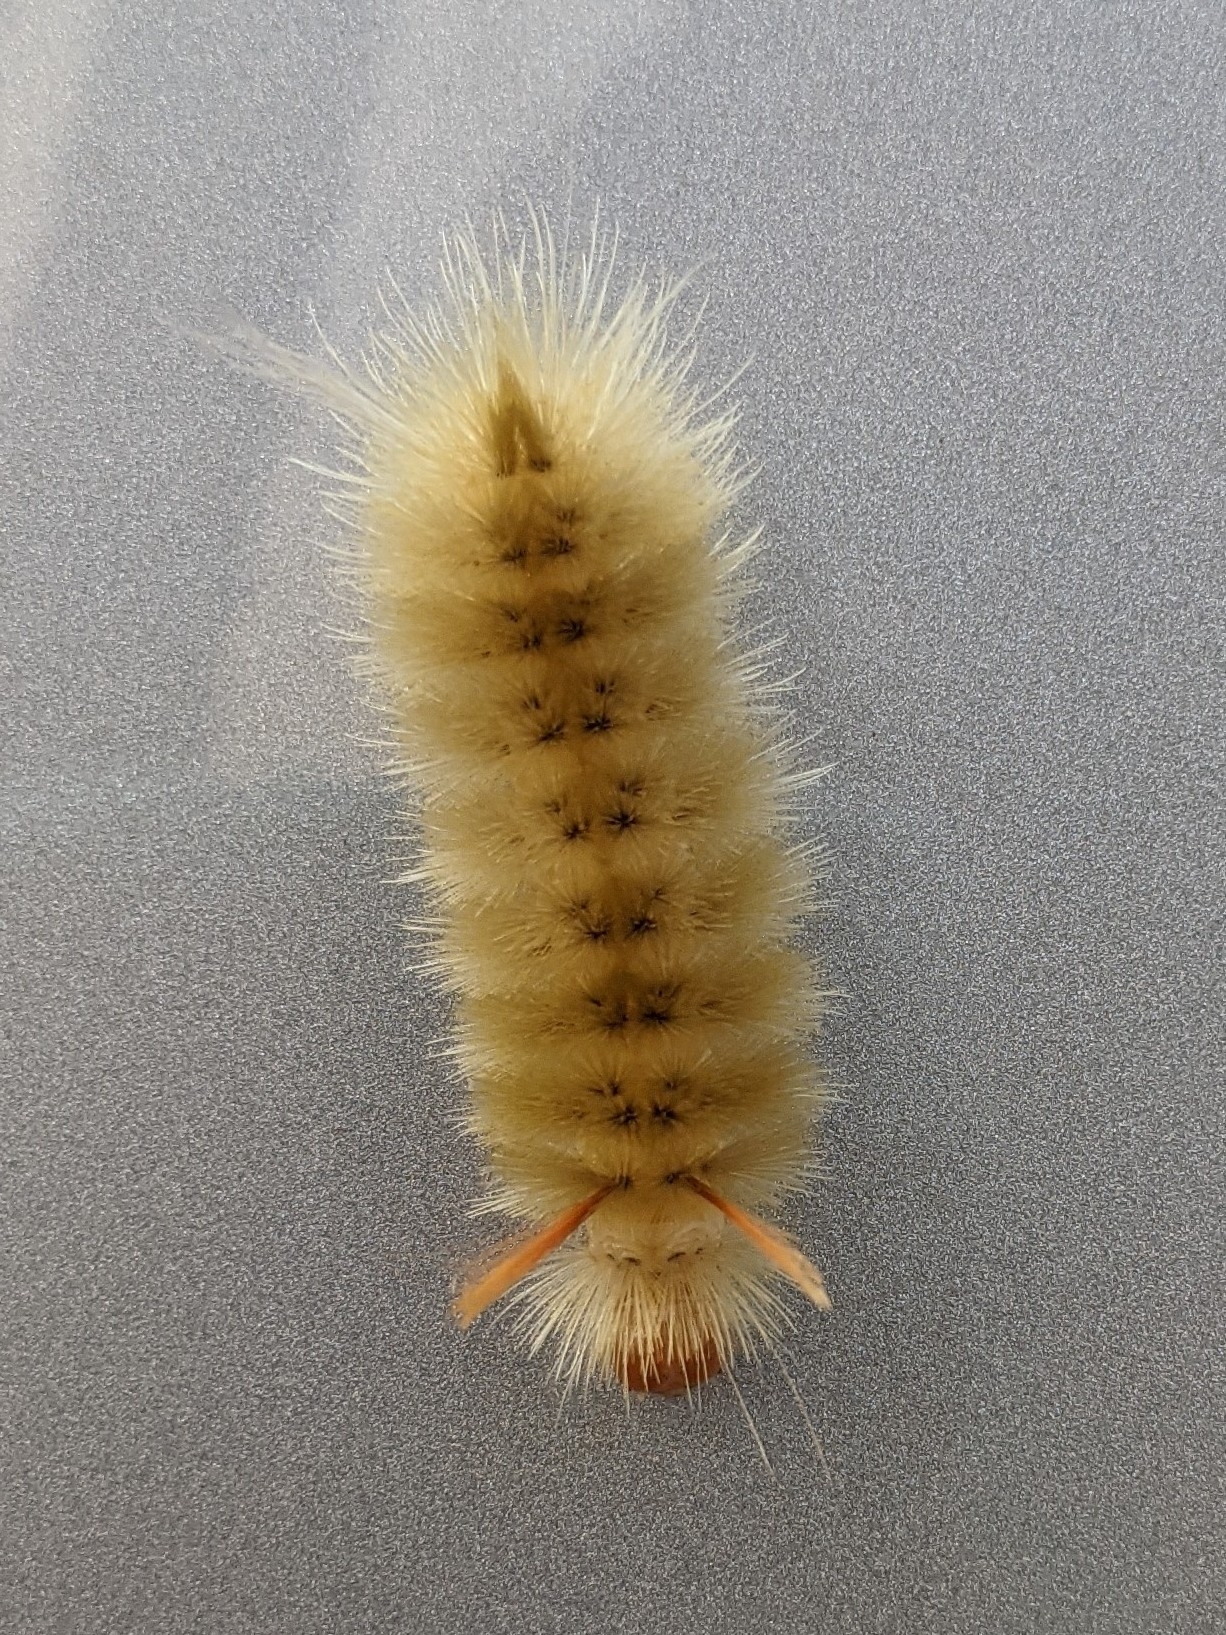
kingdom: Animalia
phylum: Arthropoda
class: Insecta
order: Lepidoptera
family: Erebidae
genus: Halysidota
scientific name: Halysidota harrisii
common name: Sycamore tussock moth
